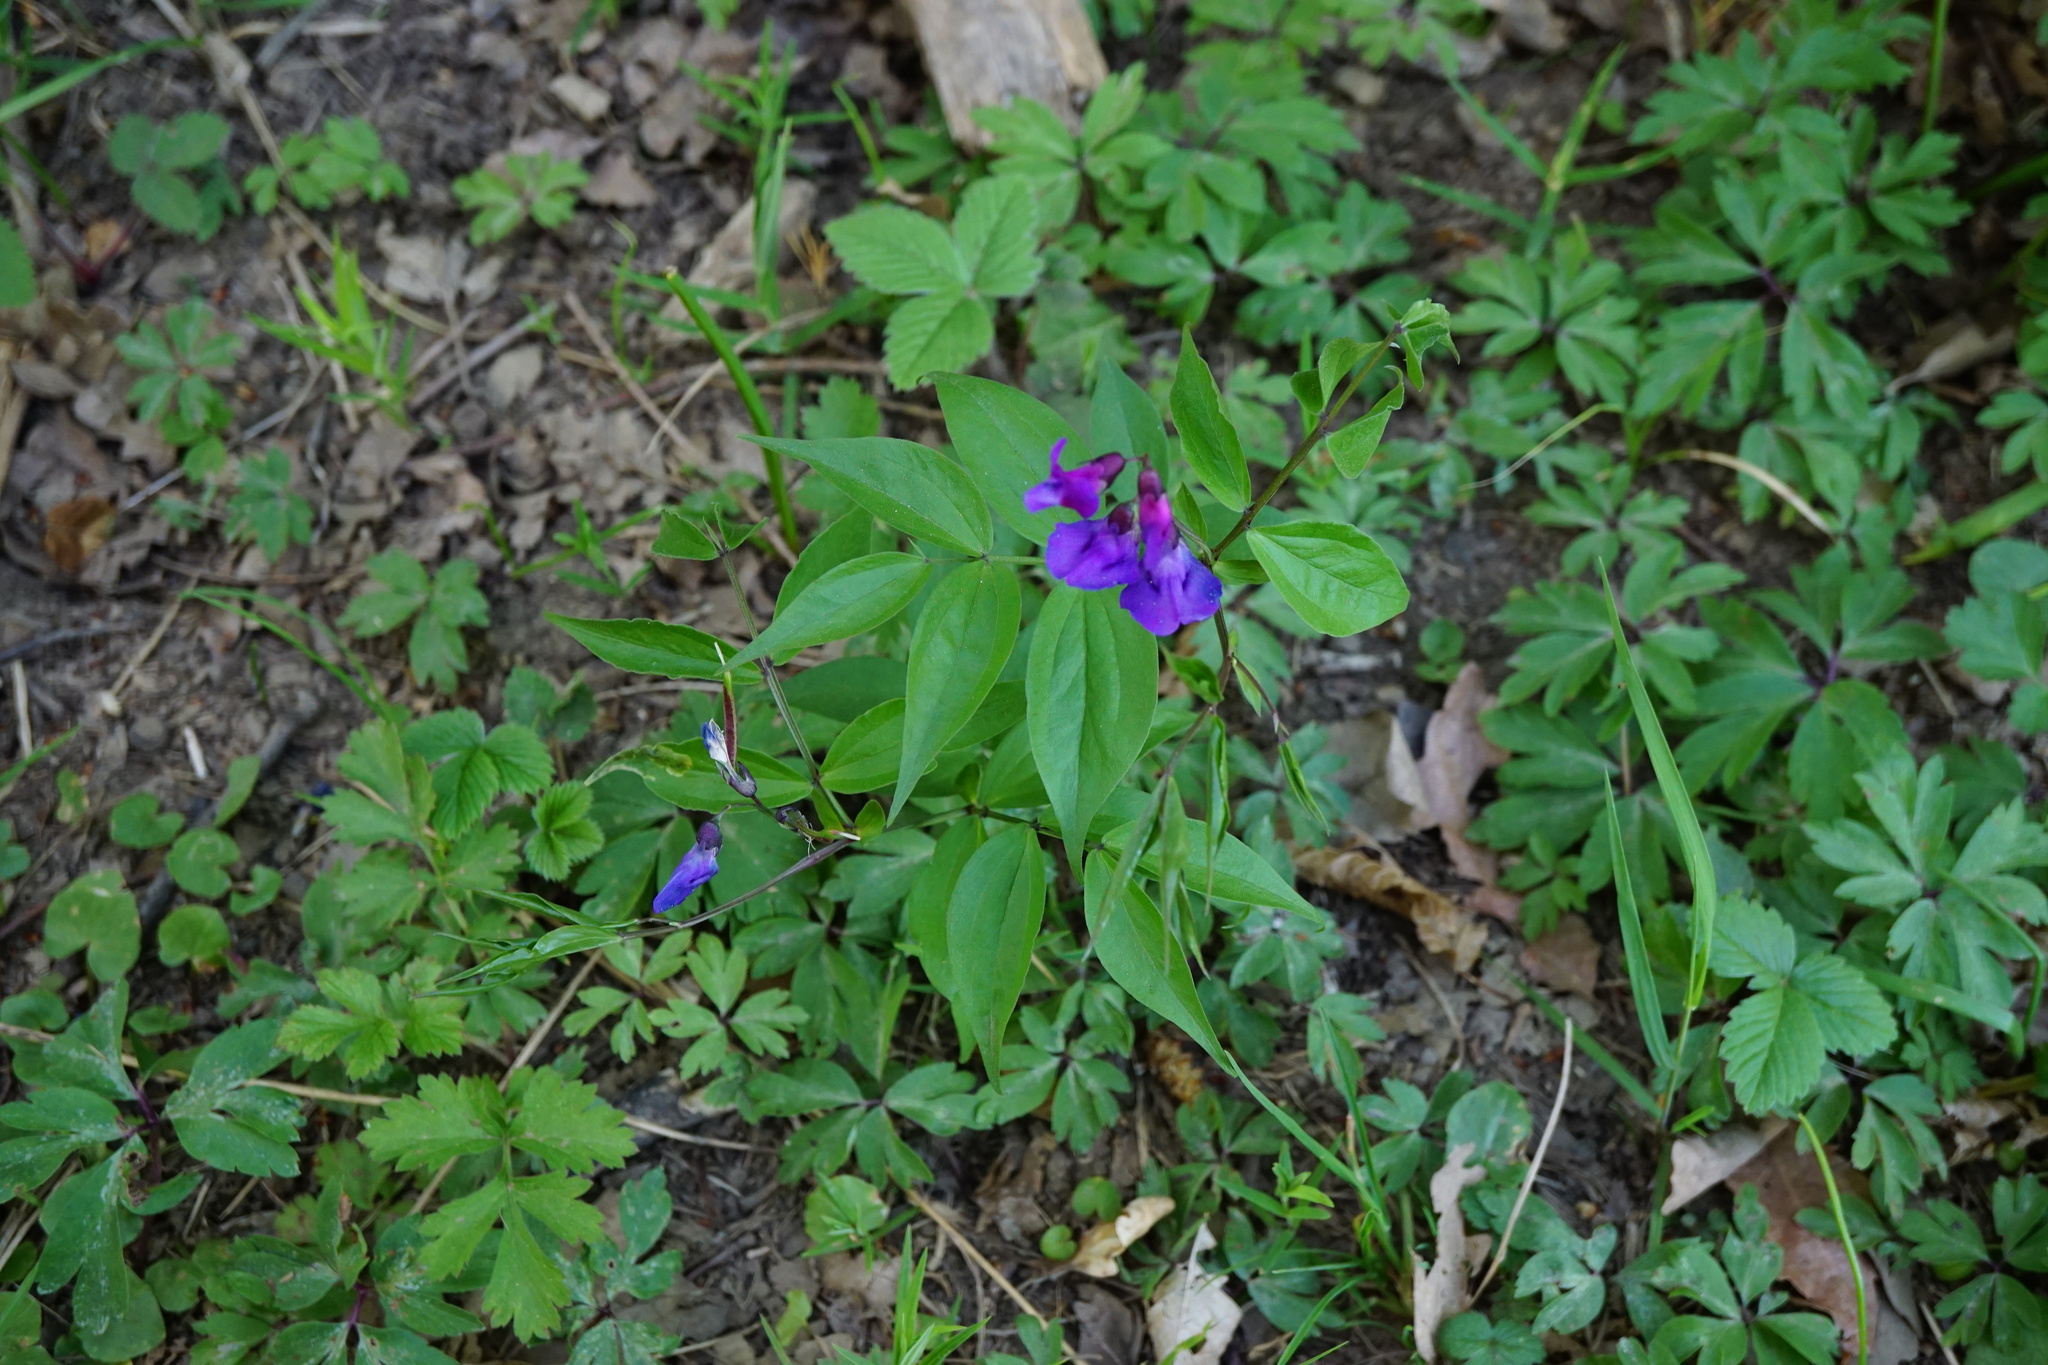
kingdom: Plantae
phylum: Tracheophyta
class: Magnoliopsida
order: Fabales
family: Fabaceae
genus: Lathyrus
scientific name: Lathyrus vernus
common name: Spring pea
